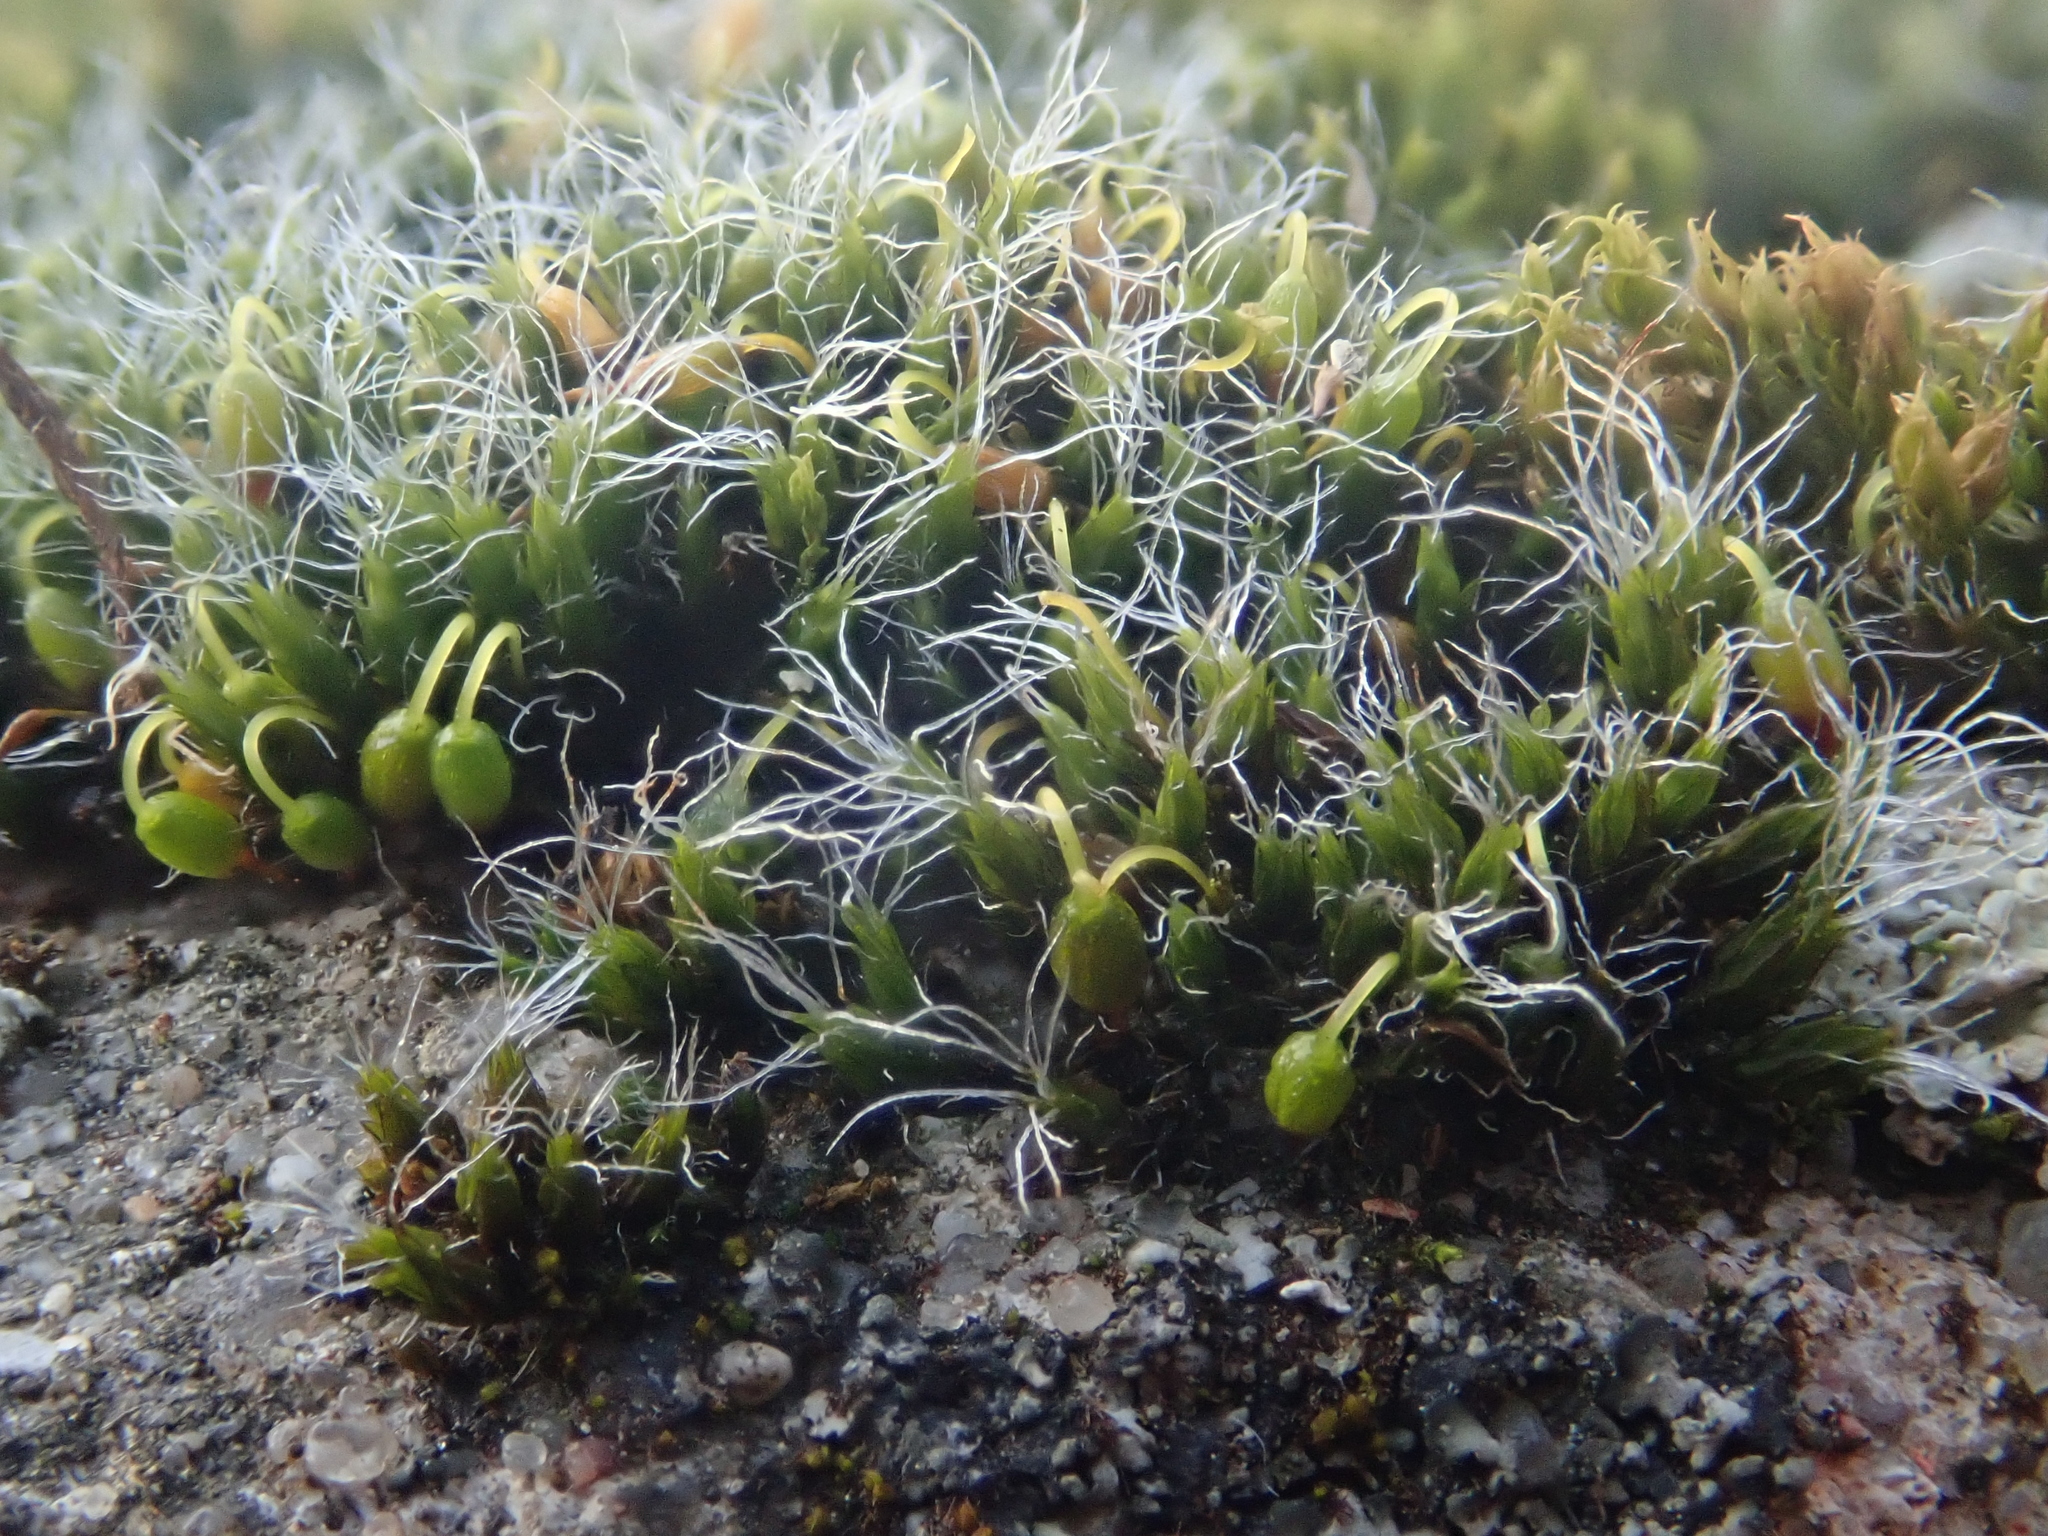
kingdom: Plantae
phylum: Bryophyta
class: Bryopsida
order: Grimmiales
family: Grimmiaceae
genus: Grimmia
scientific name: Grimmia pulvinata
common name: Grey-cushioned grimmia
